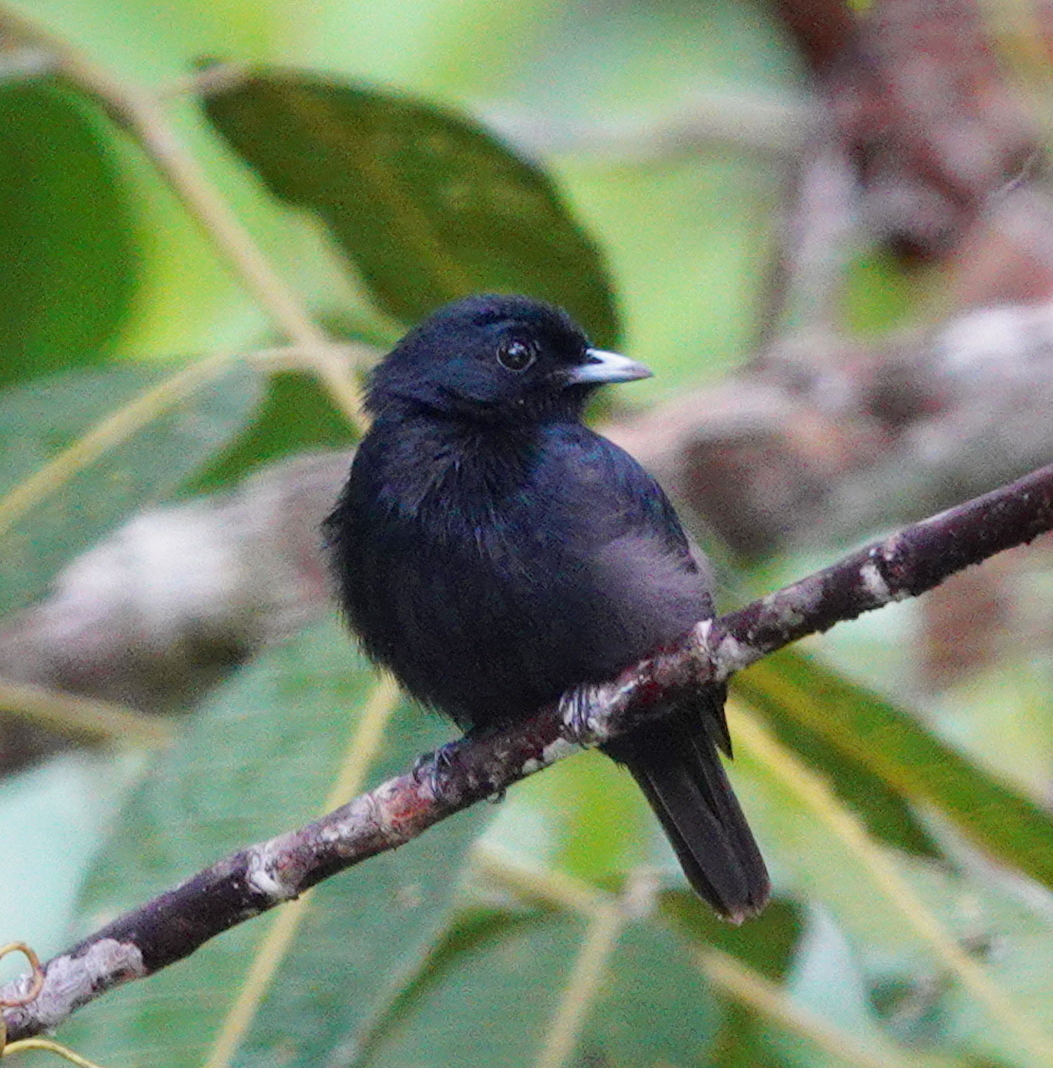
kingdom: Animalia
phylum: Chordata
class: Aves
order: Passeriformes
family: Pipridae
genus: Xenopipo
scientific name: Xenopipo atronitens
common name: Black manakin
